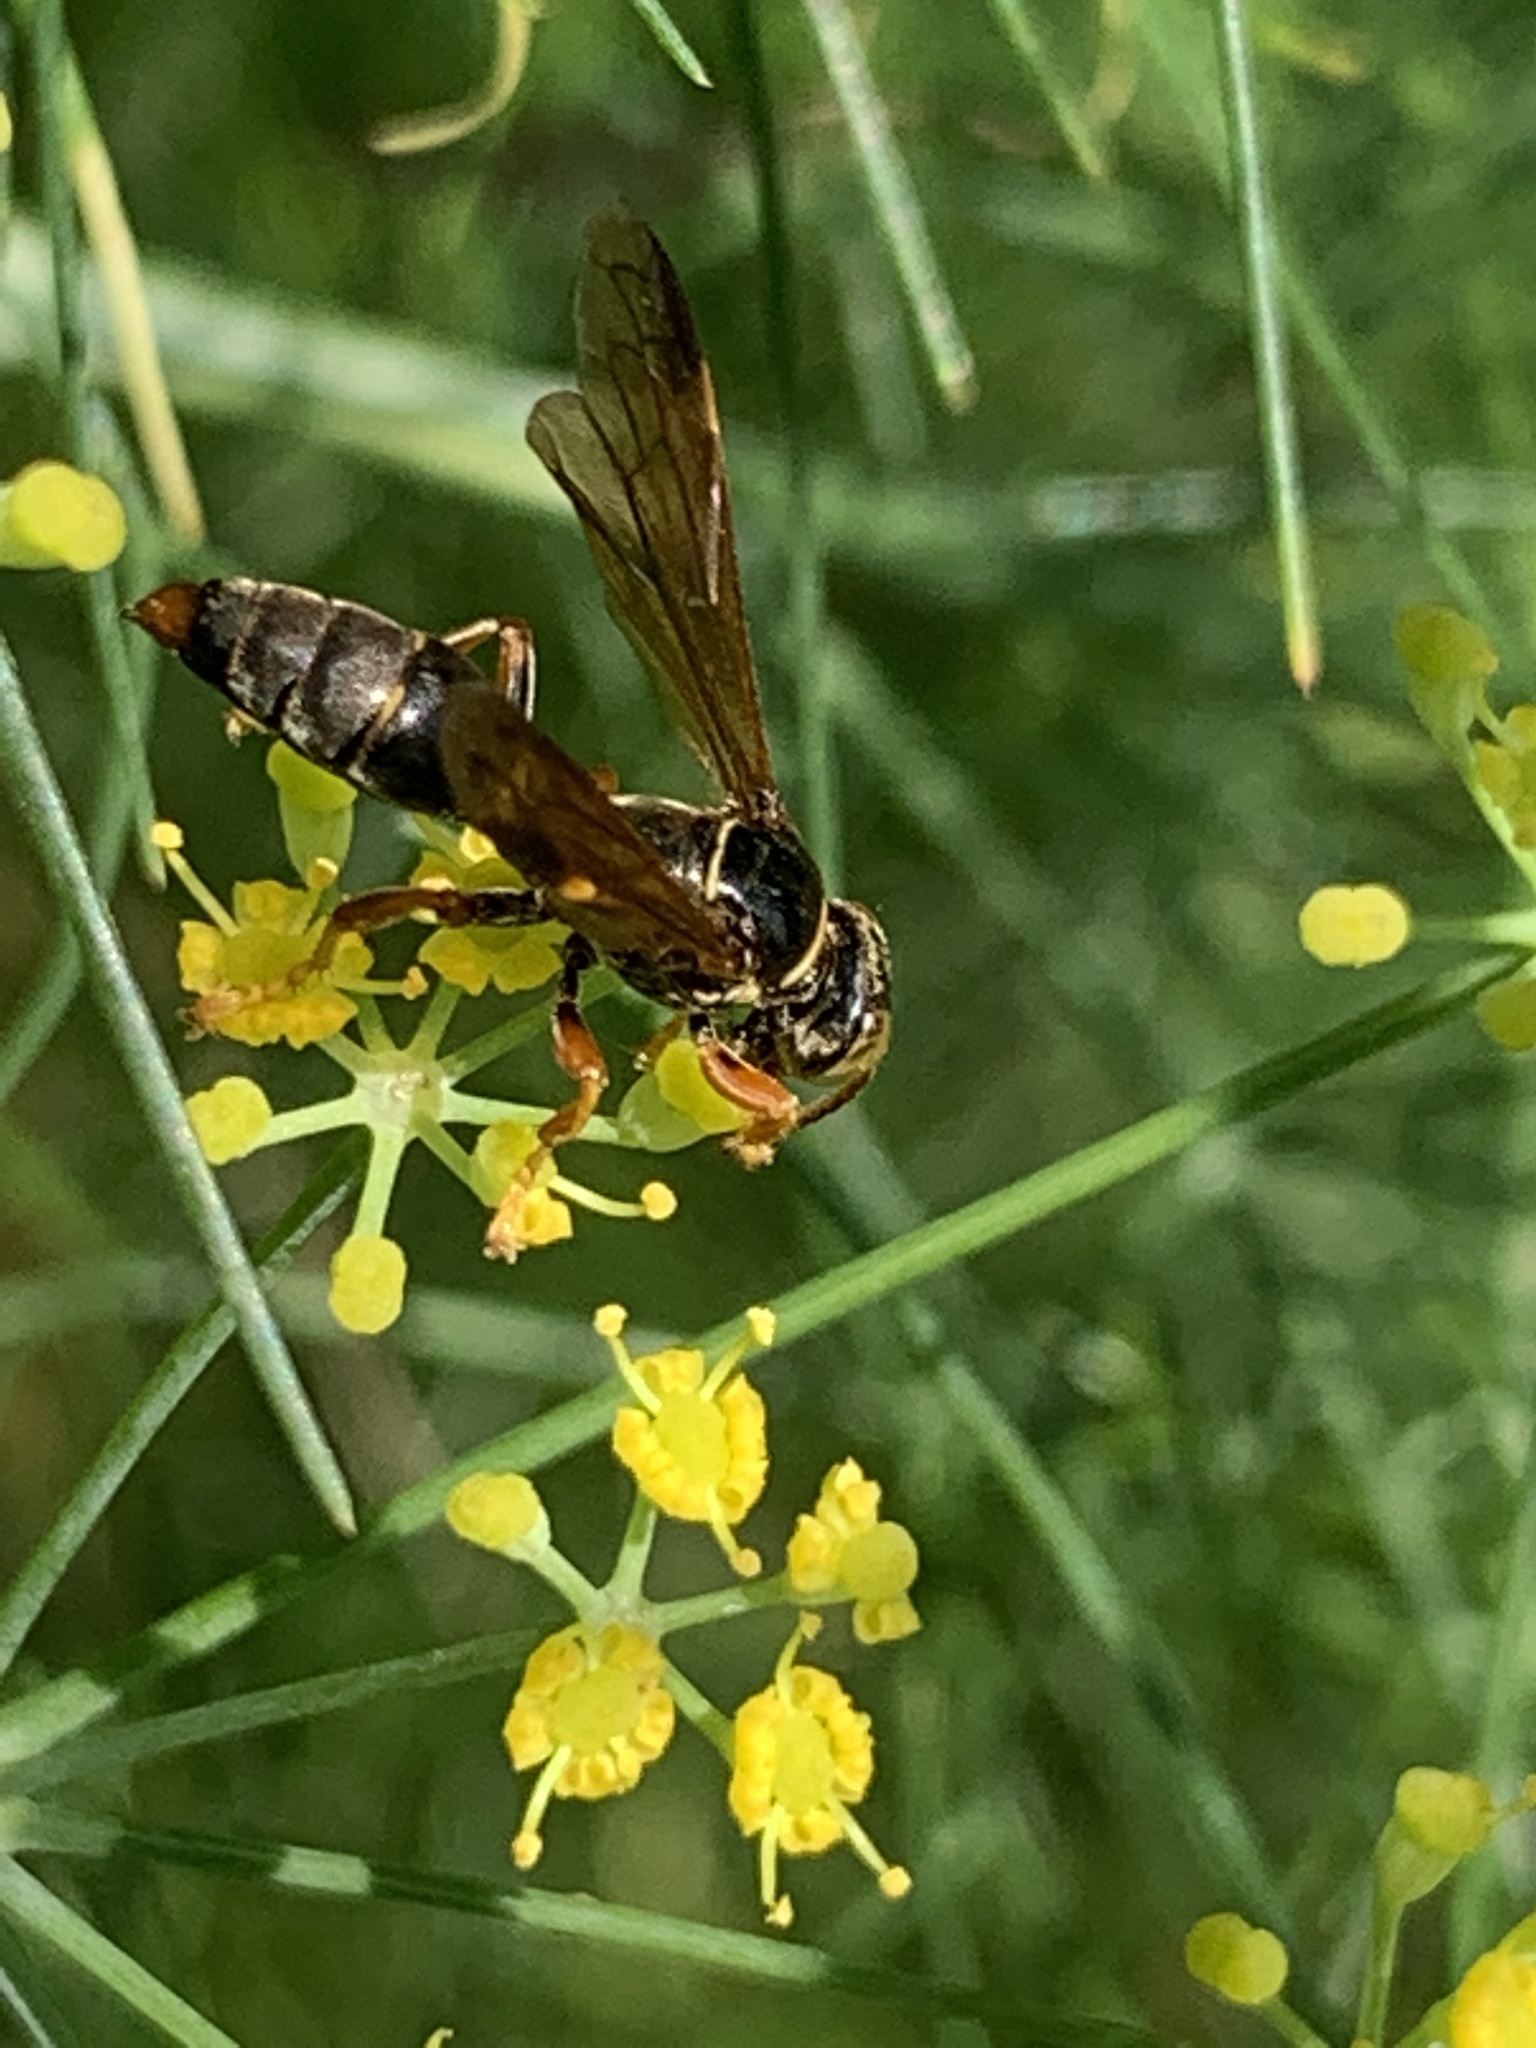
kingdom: Animalia
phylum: Arthropoda
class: Insecta
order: Hymenoptera
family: Crabronidae
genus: Saygorytes
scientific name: Saygorytes phaleratus
